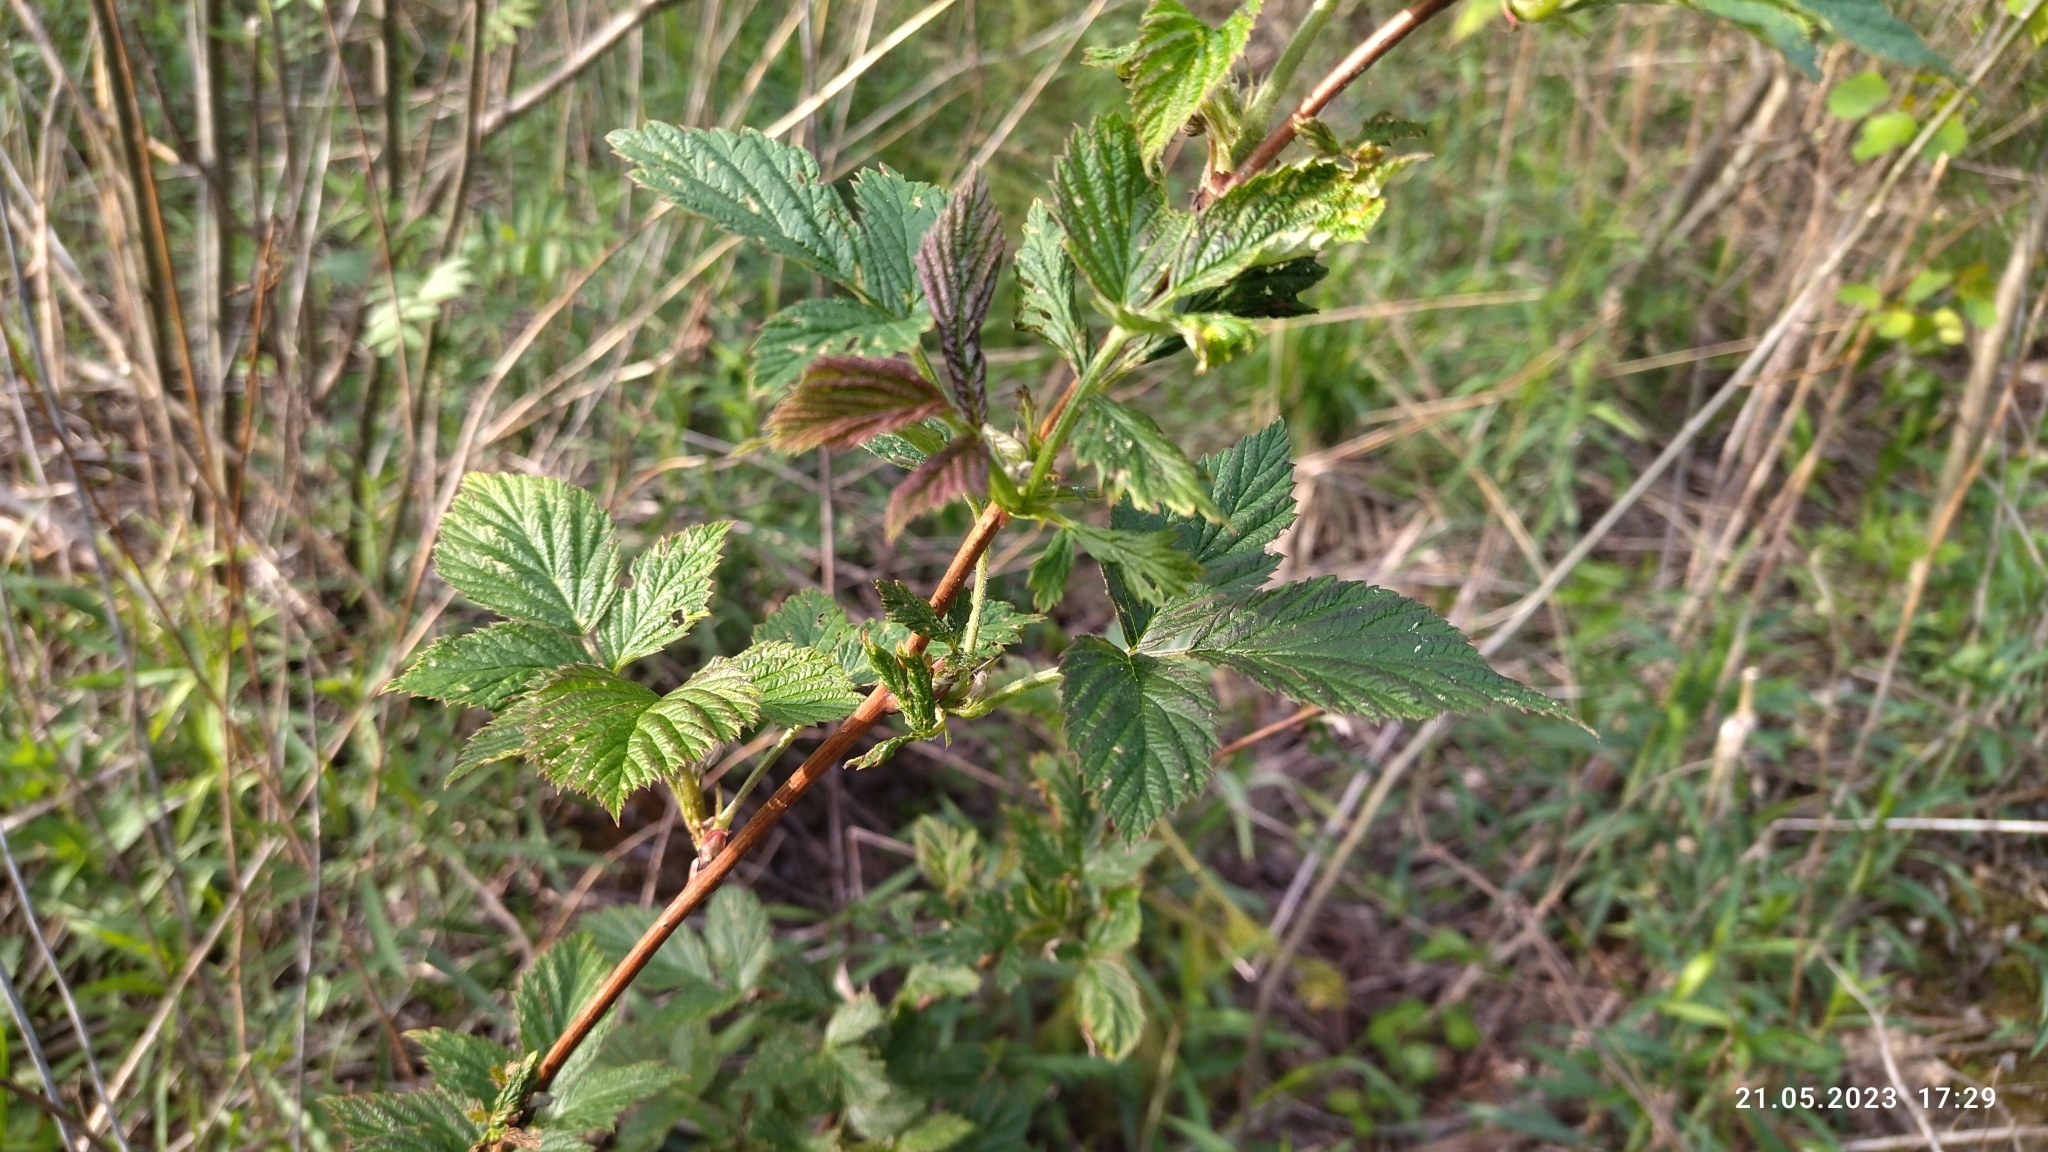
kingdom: Plantae
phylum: Tracheophyta
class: Magnoliopsida
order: Rosales
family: Rosaceae
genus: Rubus
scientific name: Rubus idaeus
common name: Raspberry
